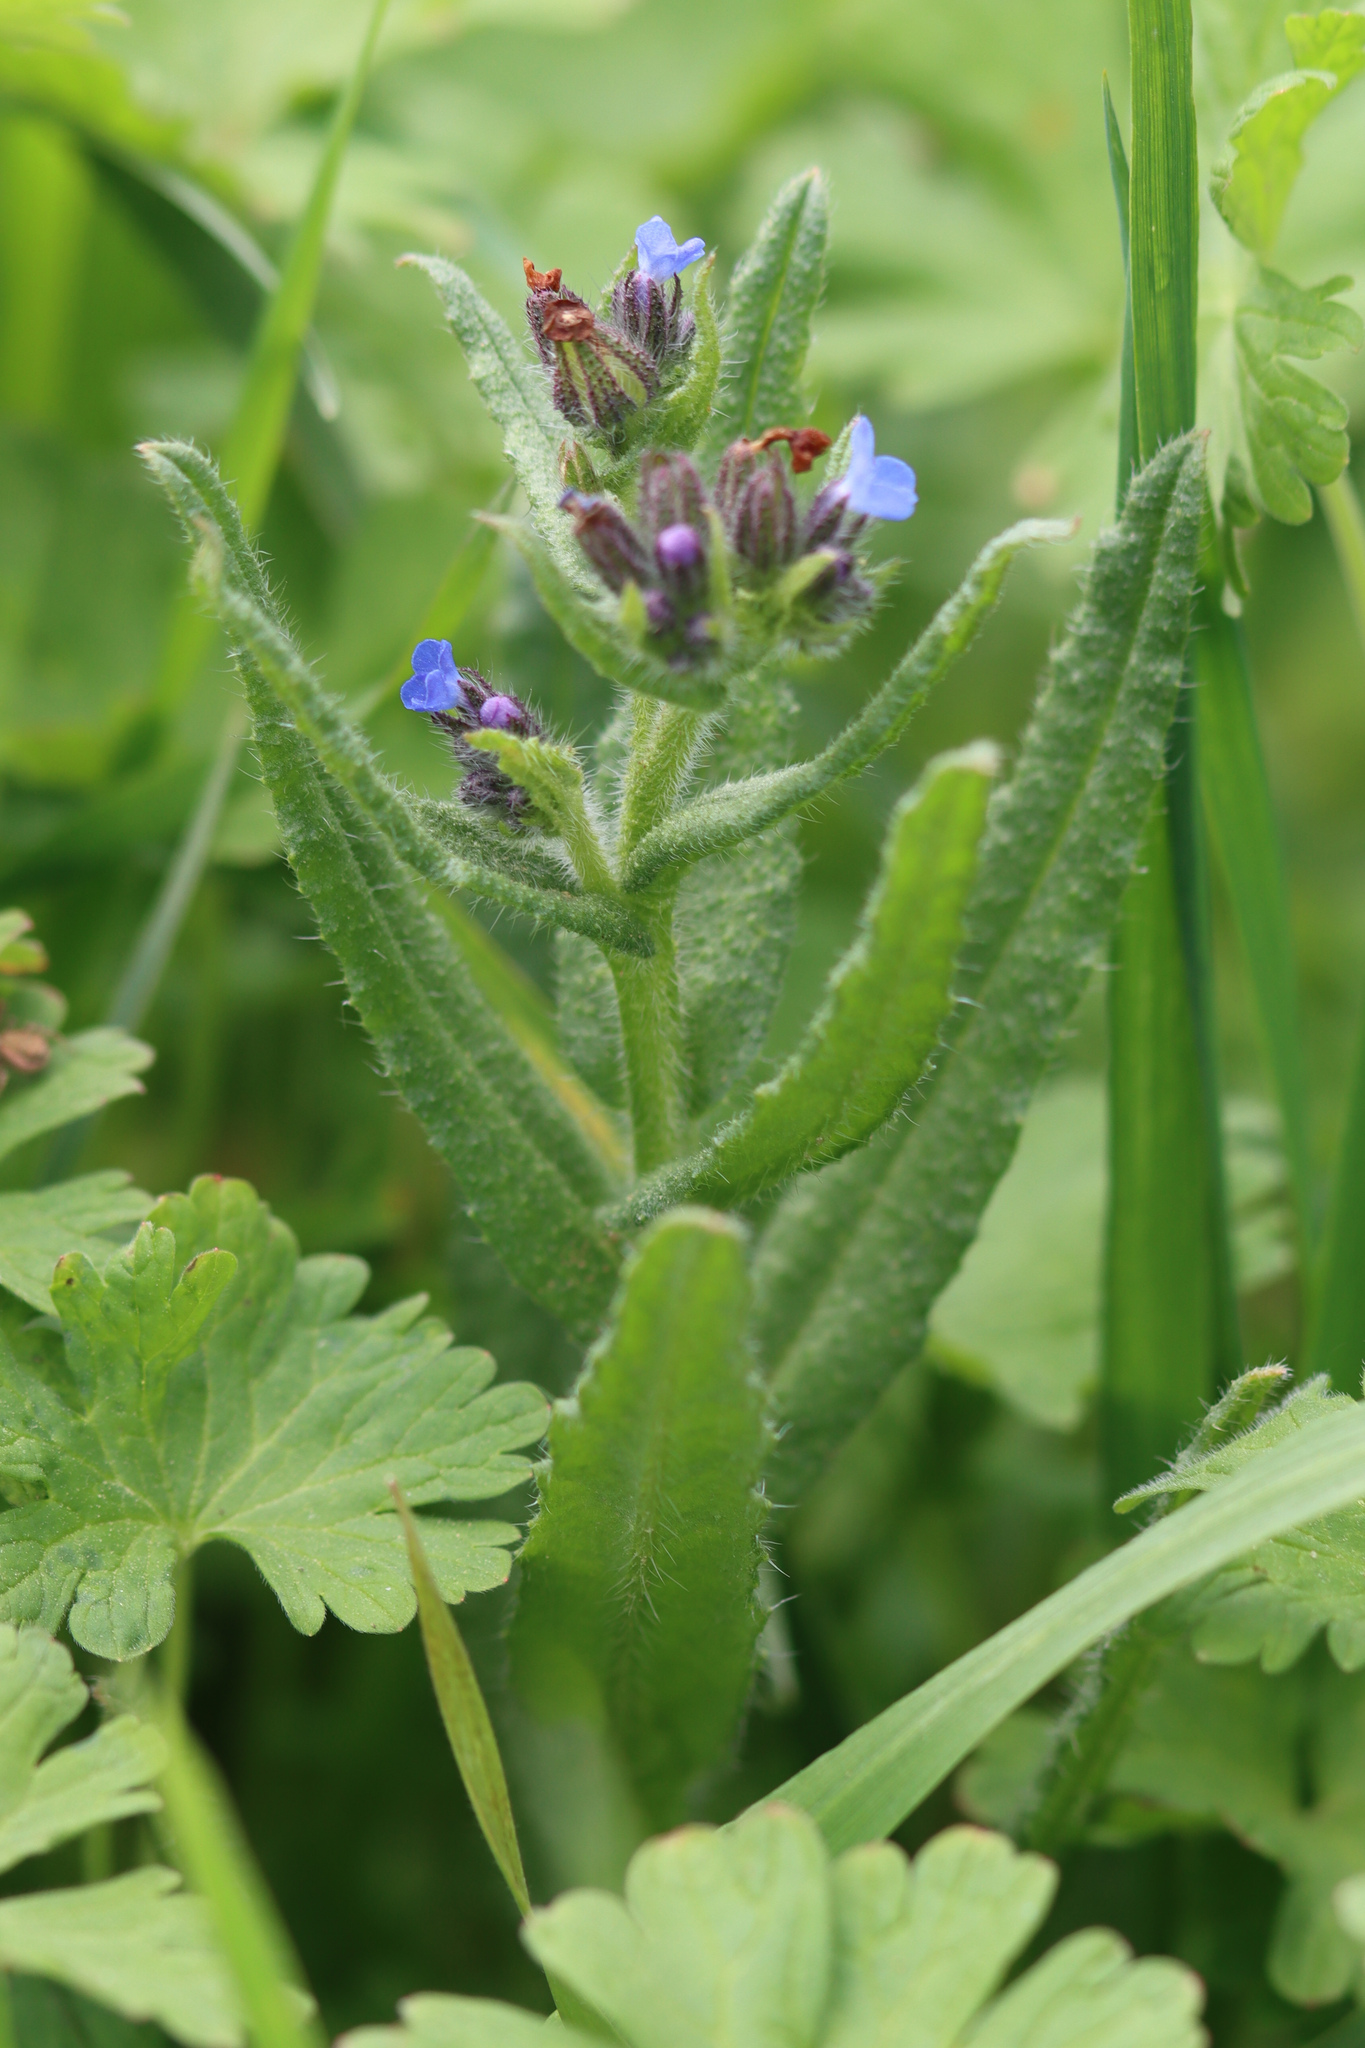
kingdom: Plantae
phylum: Tracheophyta
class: Magnoliopsida
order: Boraginales
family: Boraginaceae
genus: Lycopsis
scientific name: Lycopsis arvensis
